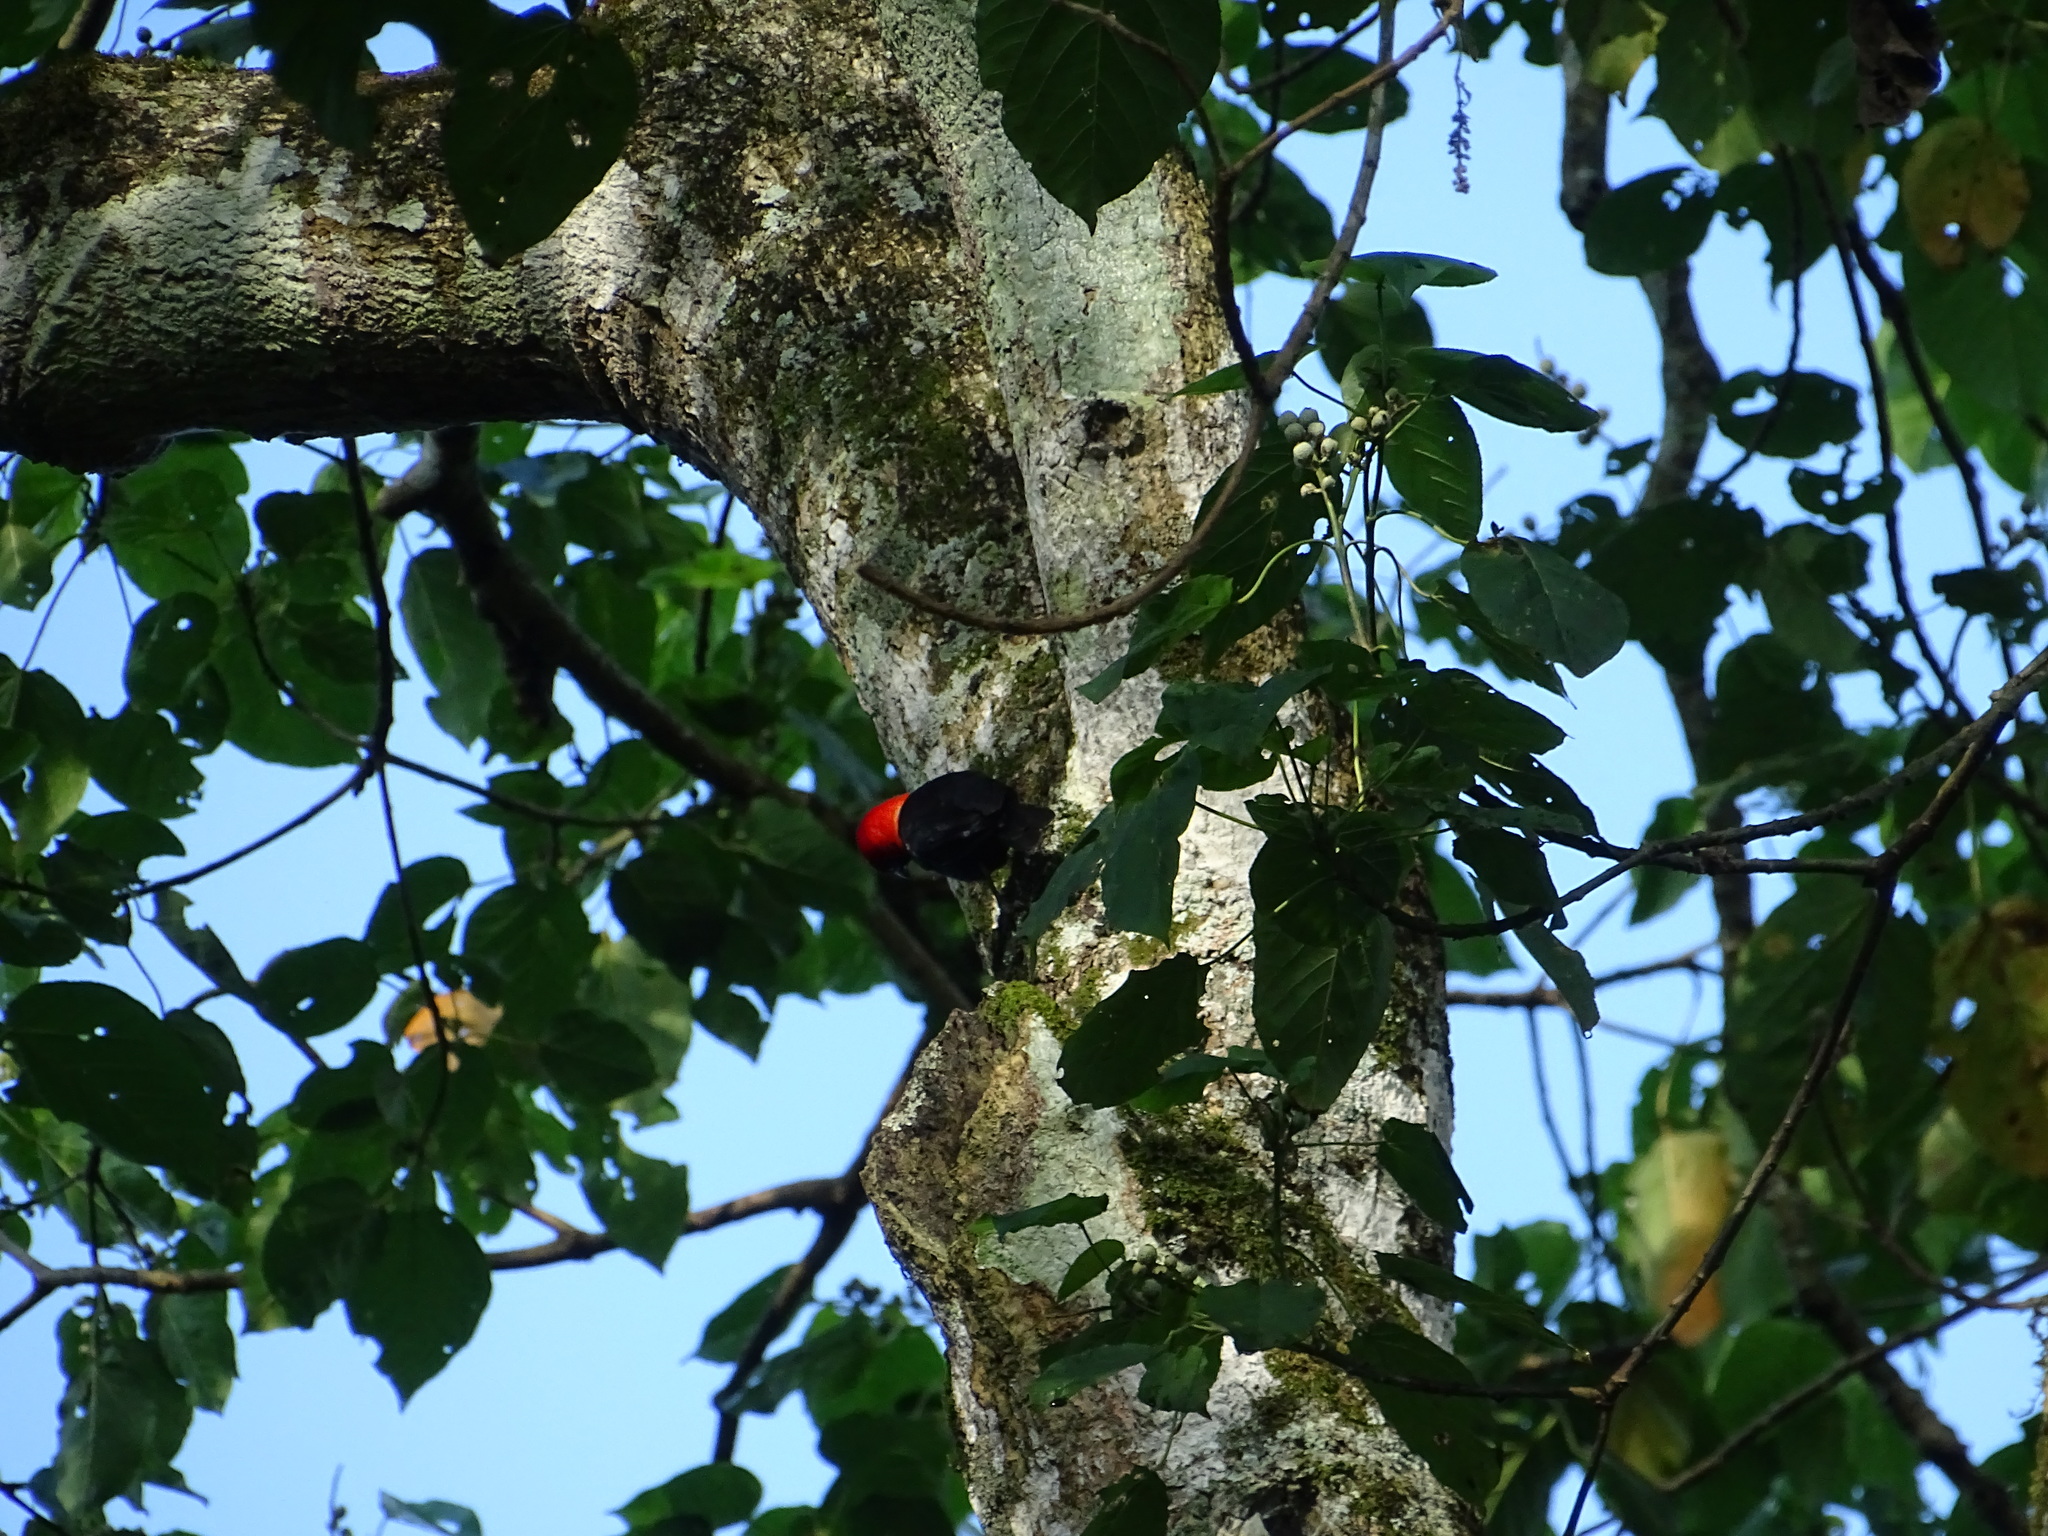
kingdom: Animalia
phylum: Chordata
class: Aves
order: Passeriformes
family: Ploceidae
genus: Malimbus
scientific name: Malimbus rubricollis
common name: Red-headed malimbe
